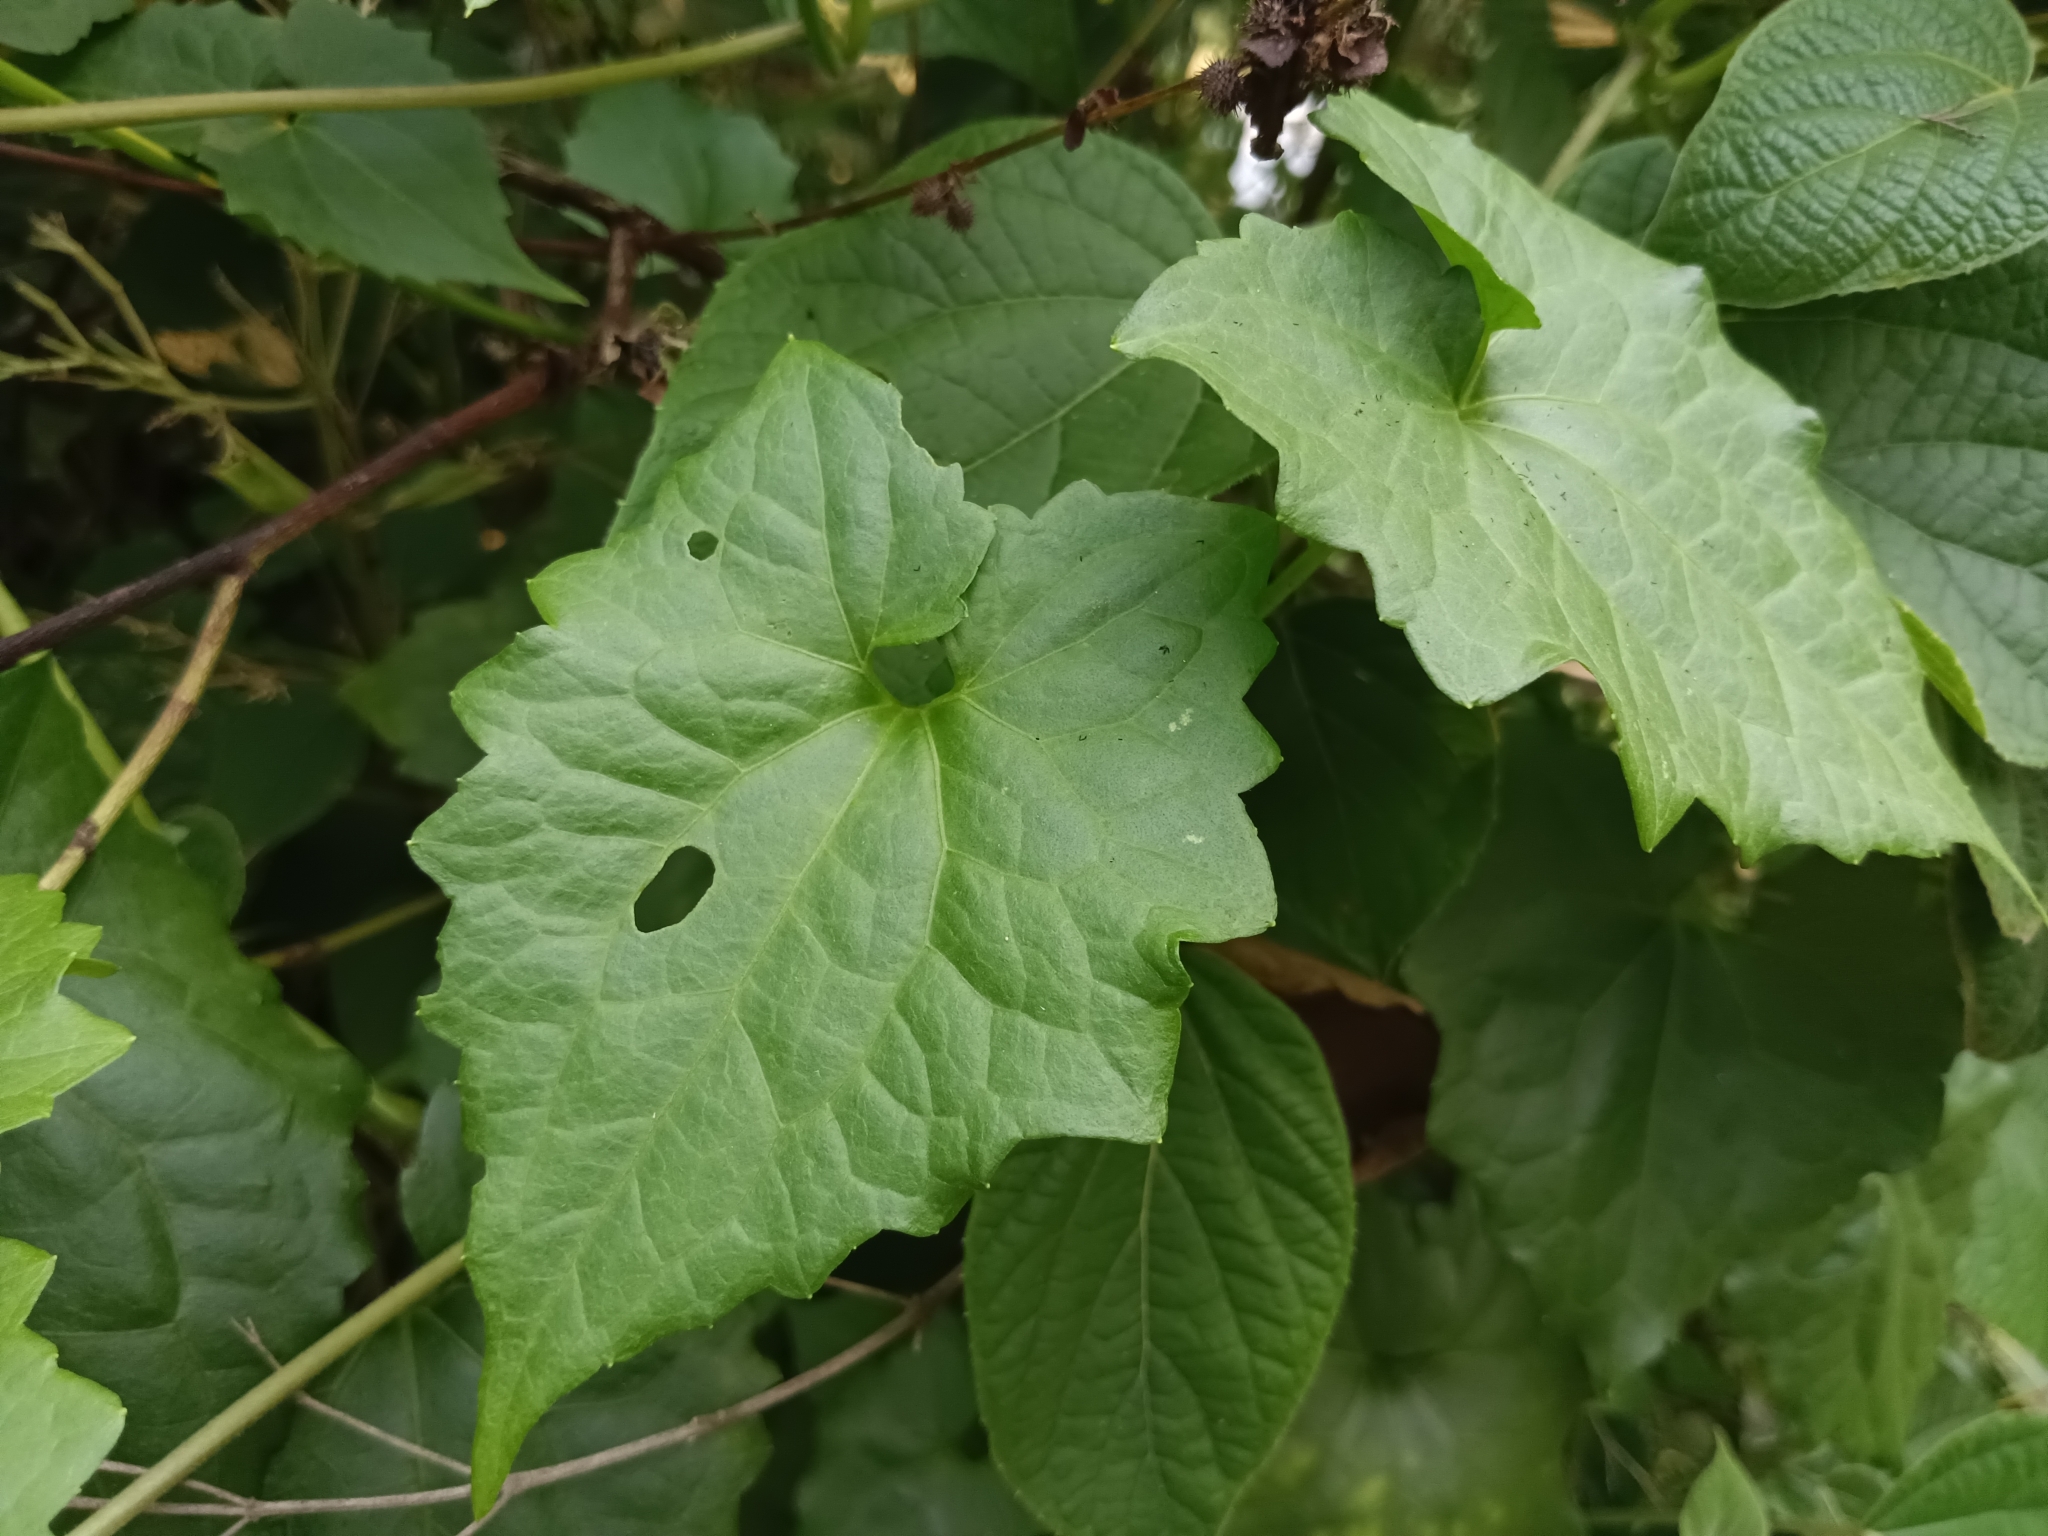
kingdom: Plantae
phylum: Tracheophyta
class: Magnoliopsida
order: Asterales
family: Asteraceae
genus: Mikania
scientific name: Mikania micrantha
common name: Mile-a-minute
